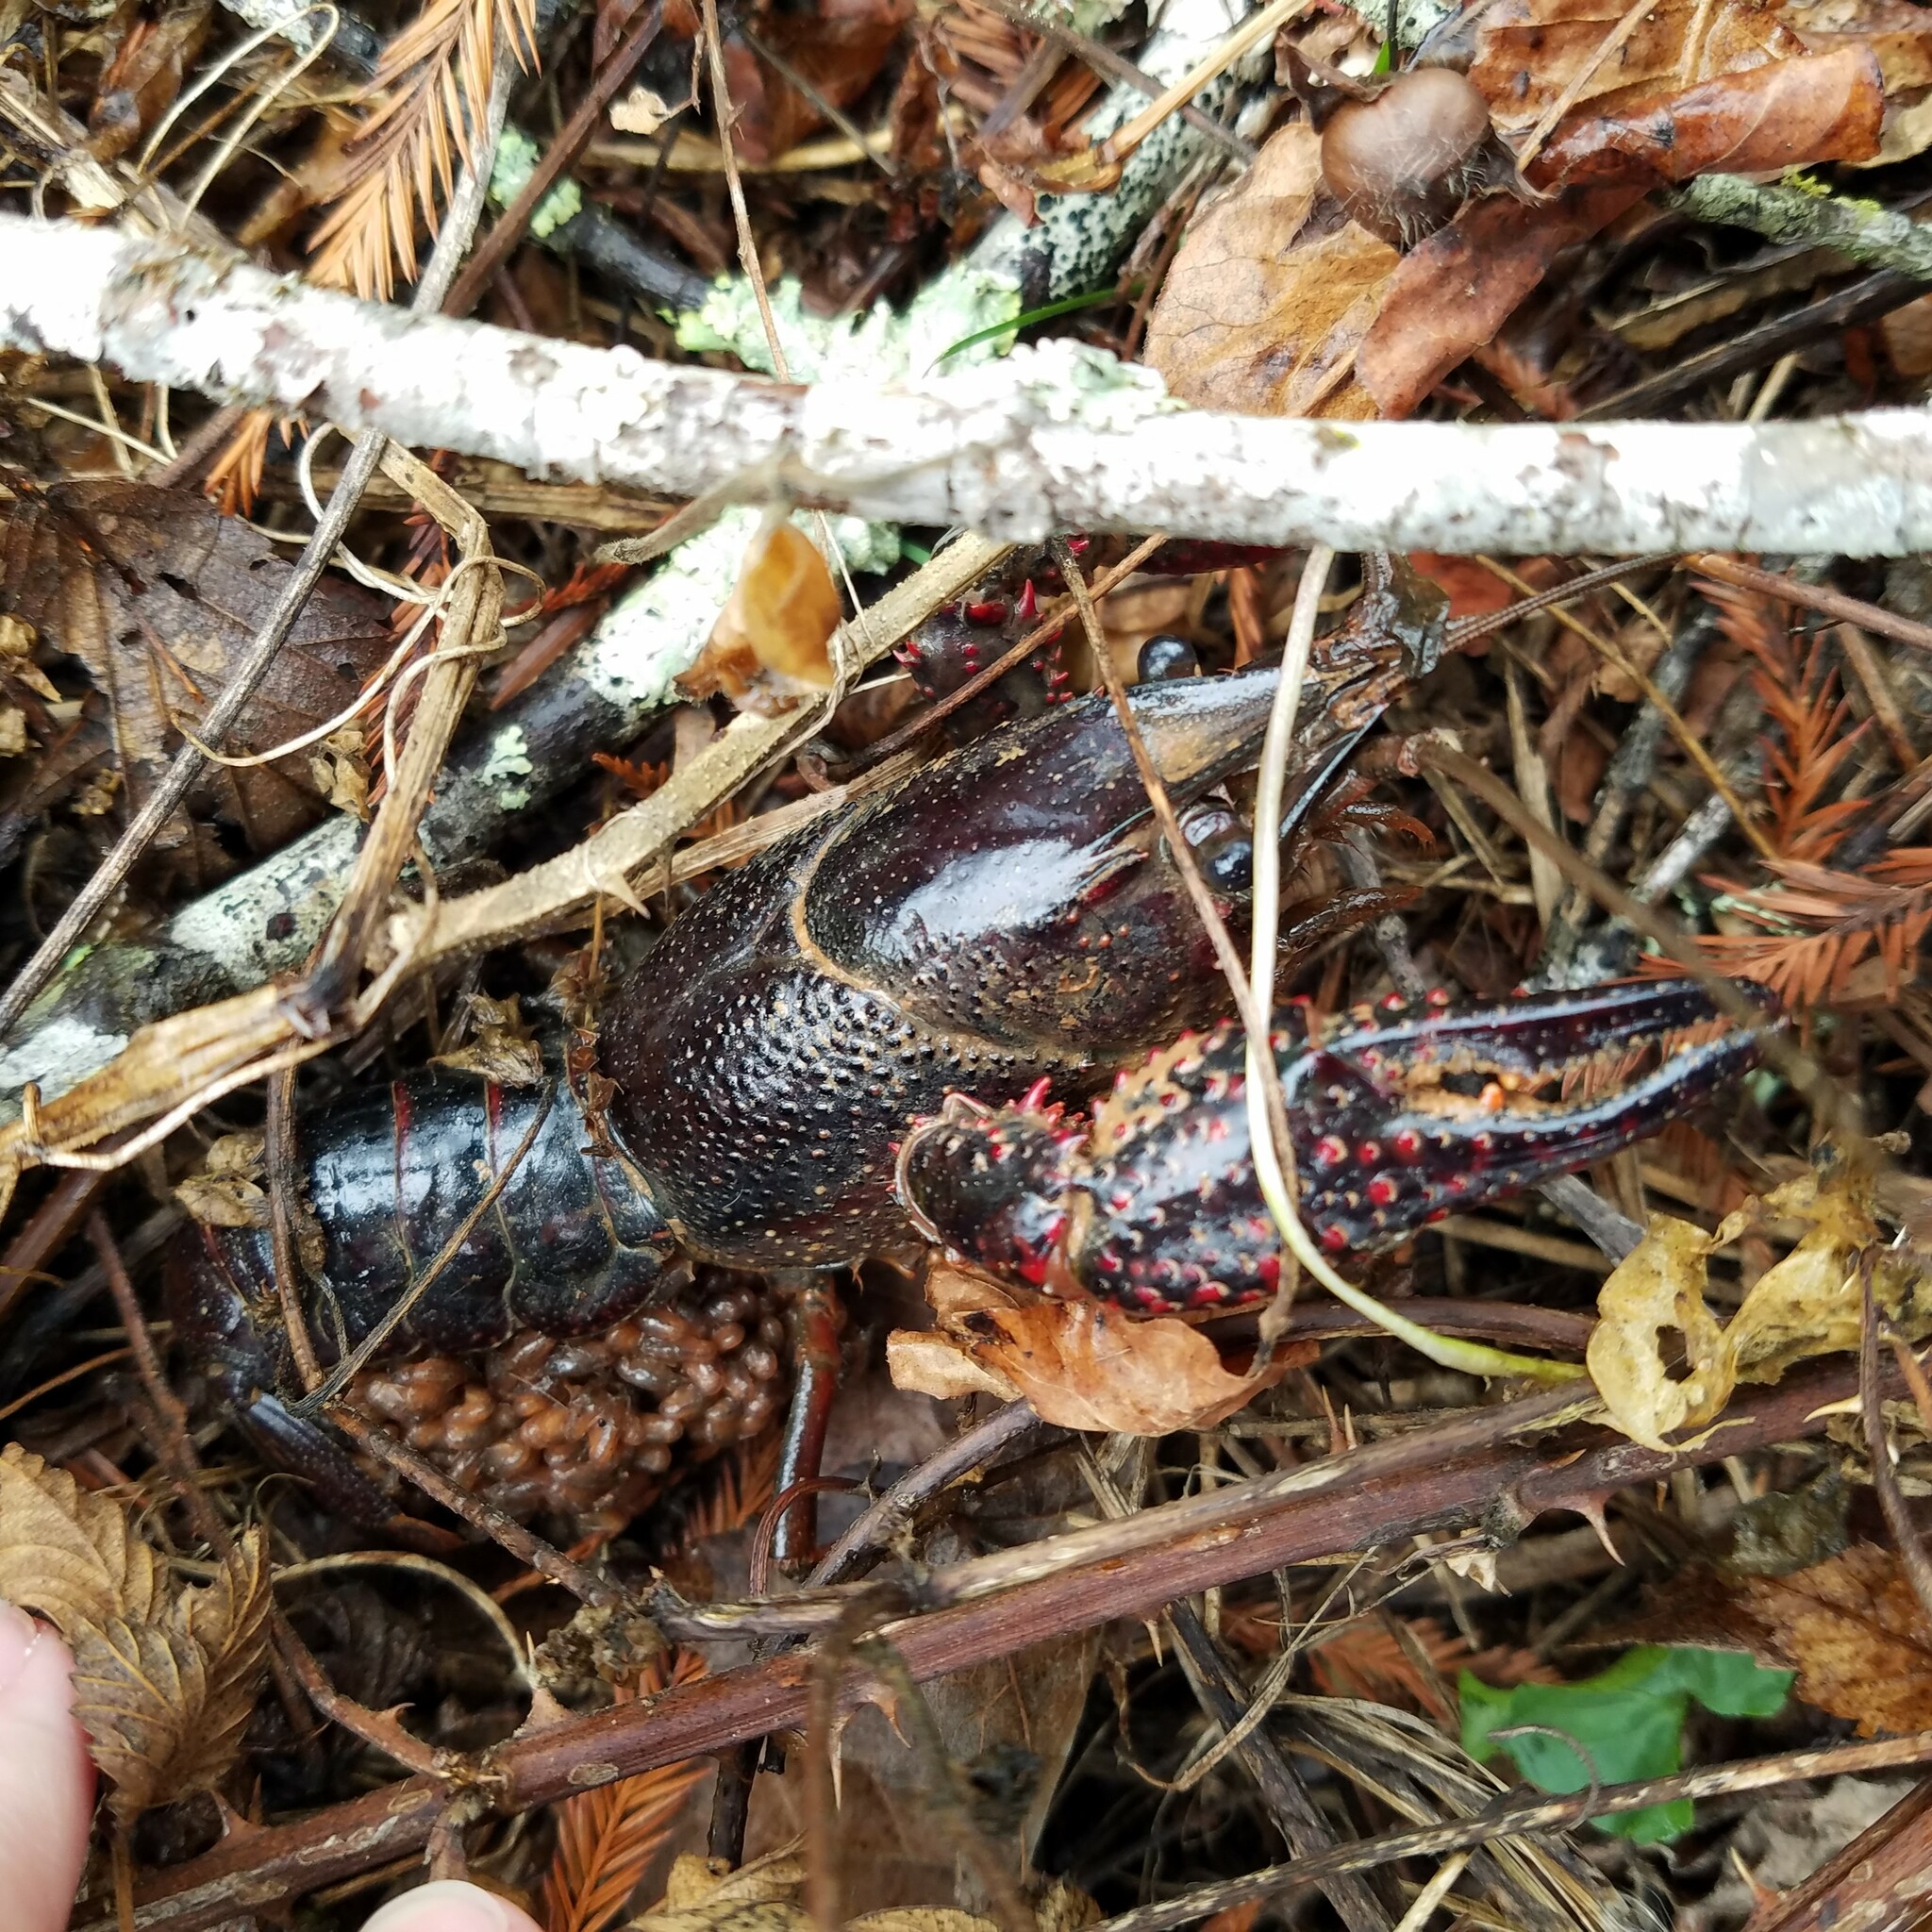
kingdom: Animalia
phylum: Arthropoda
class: Malacostraca
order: Decapoda
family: Cambaridae
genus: Procambarus
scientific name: Procambarus clarkii
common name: Red swamp crayfish
